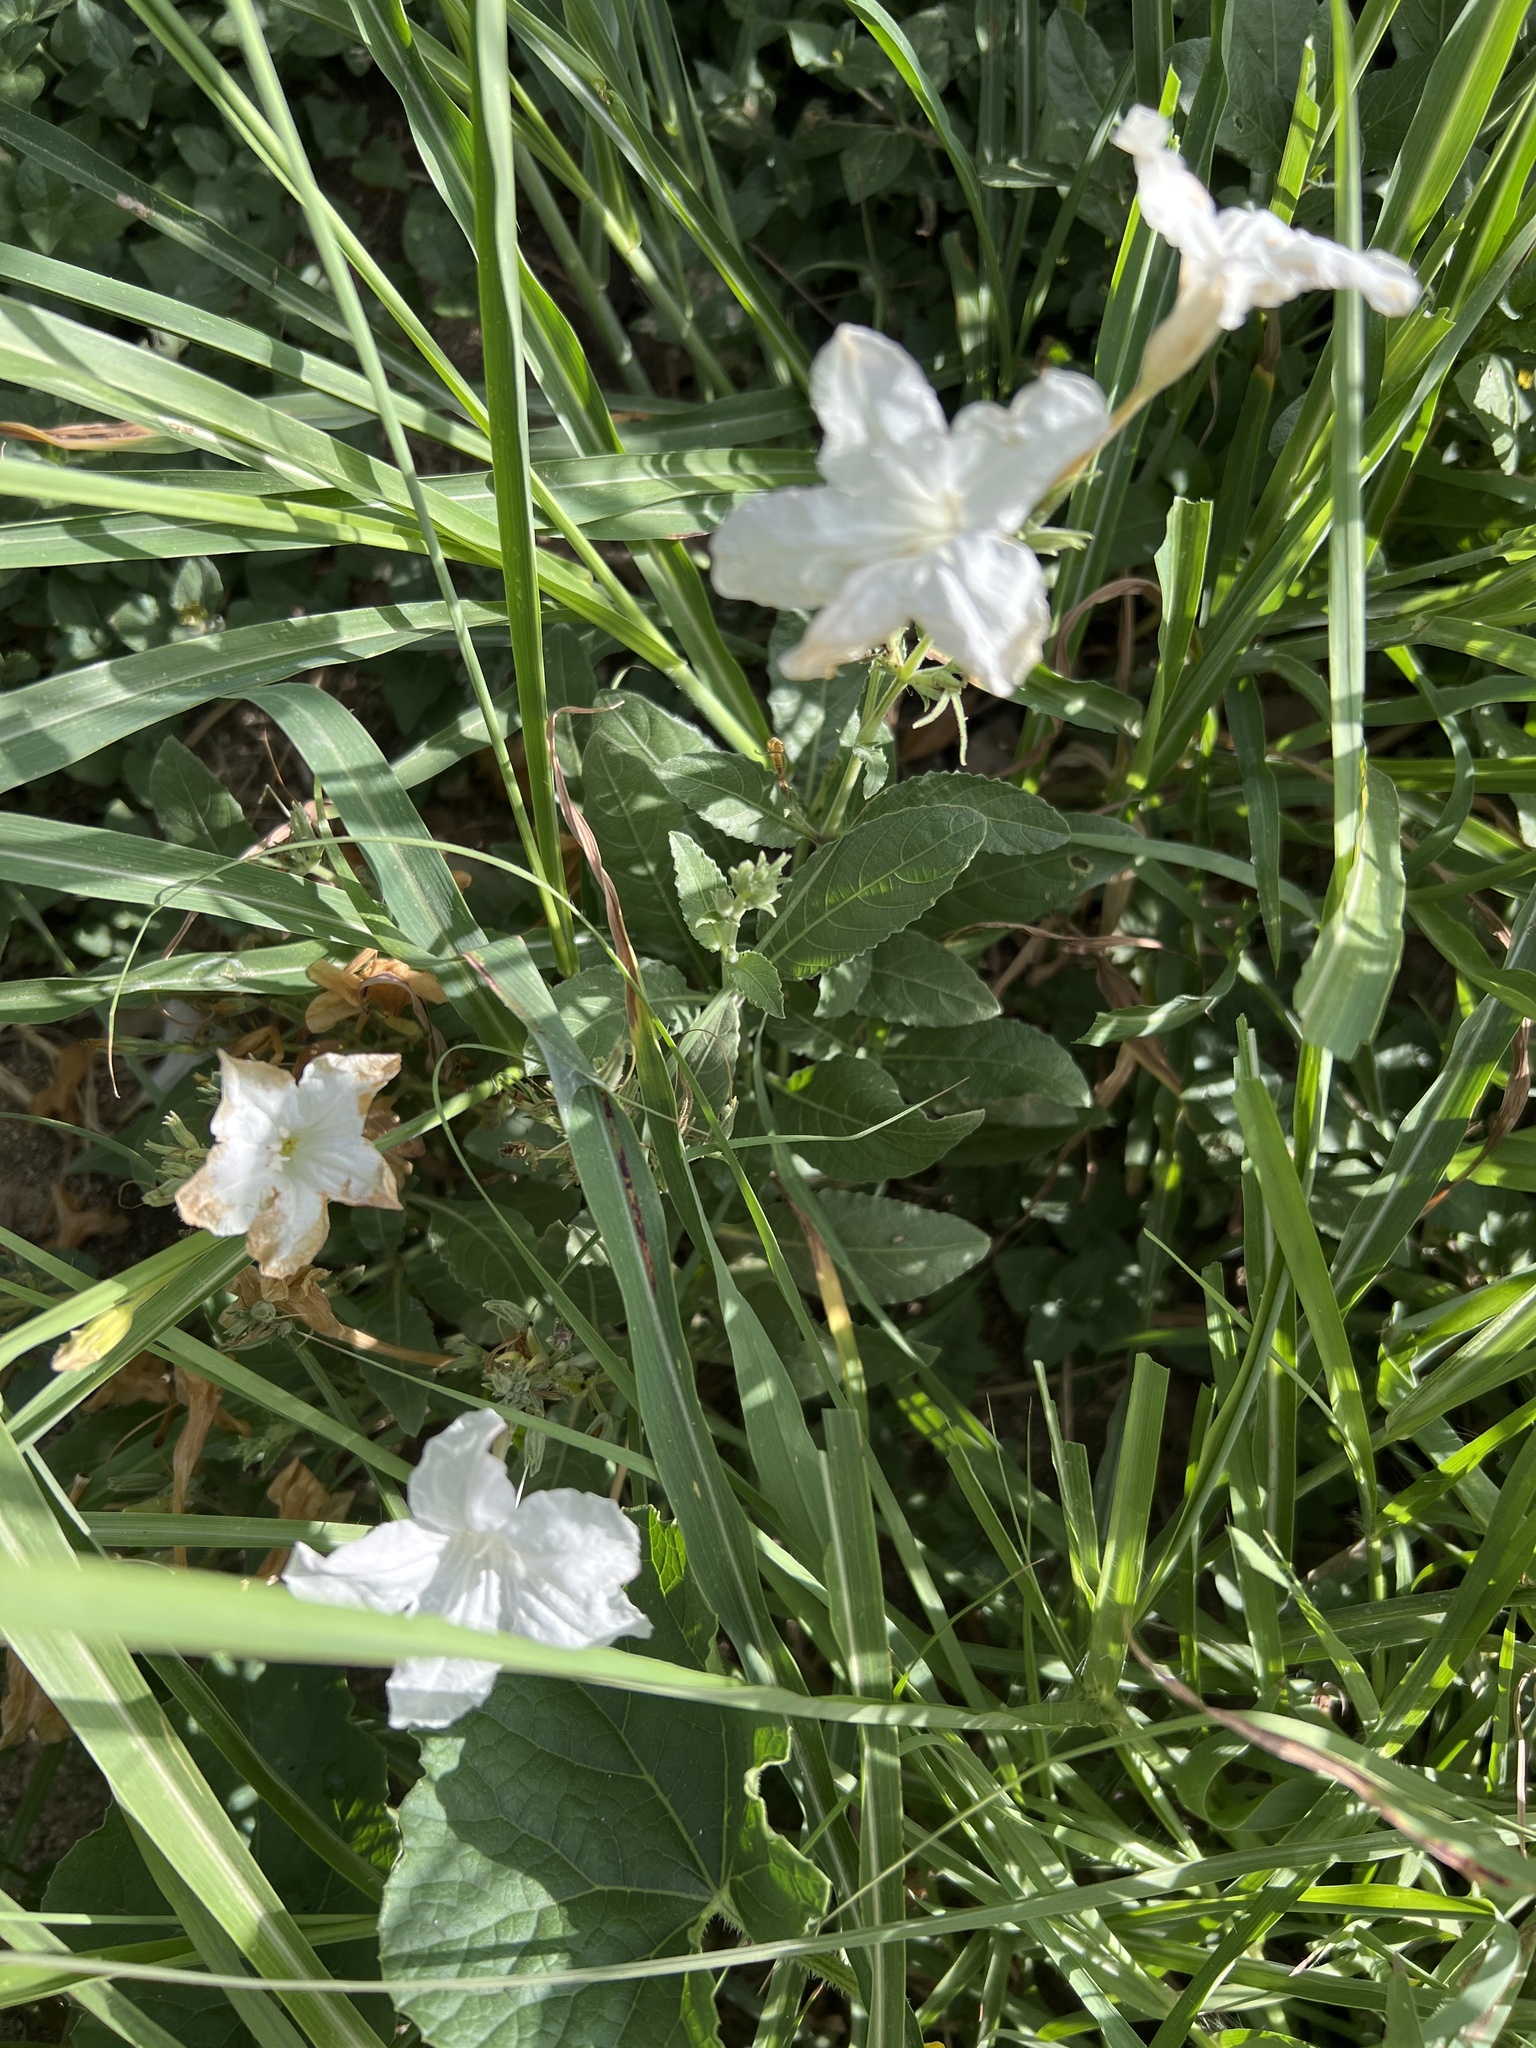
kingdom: Plantae
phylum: Tracheophyta
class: Magnoliopsida
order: Lamiales
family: Acanthaceae
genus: Ruellia
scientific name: Ruellia metziae
